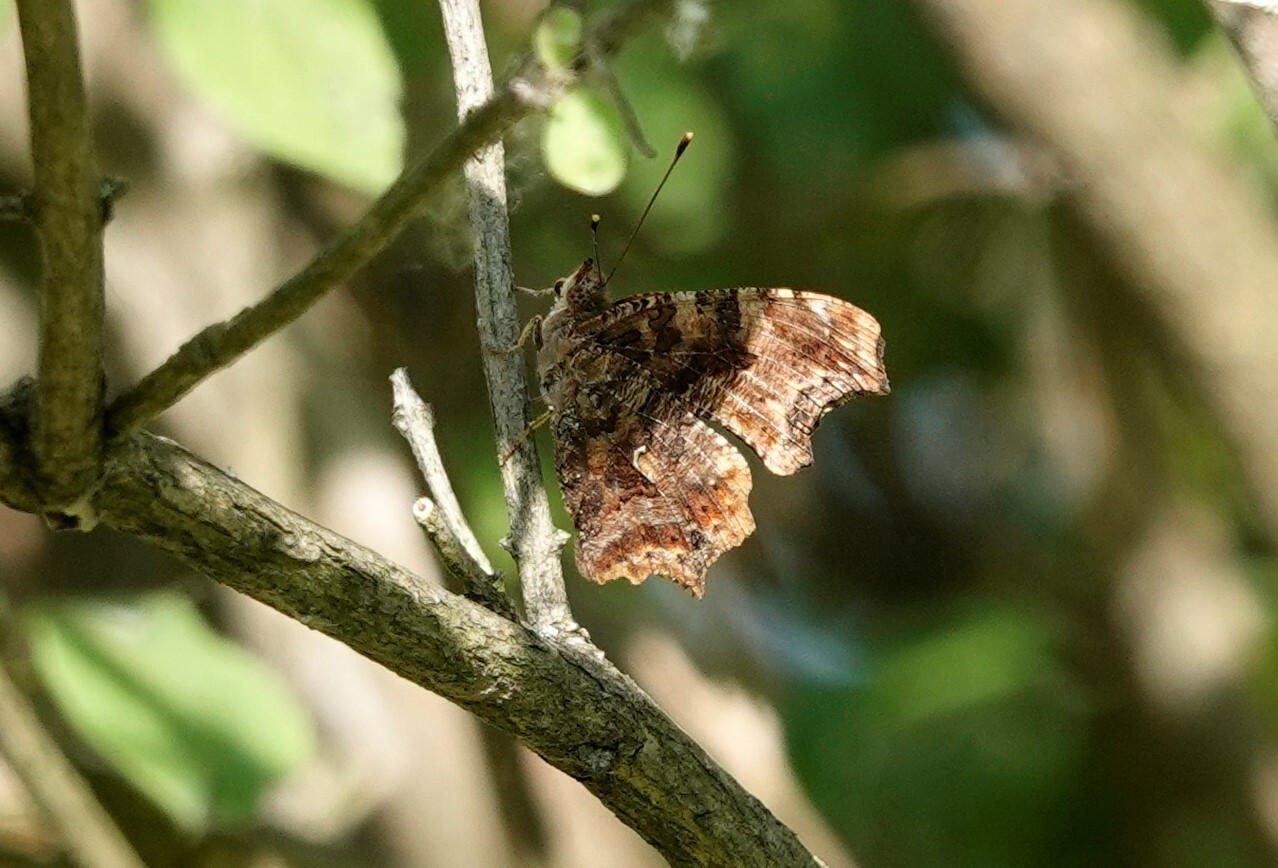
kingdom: Animalia
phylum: Arthropoda
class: Insecta
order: Lepidoptera
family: Nymphalidae
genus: Polygonia
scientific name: Polygonia comma
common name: Eastern comma
